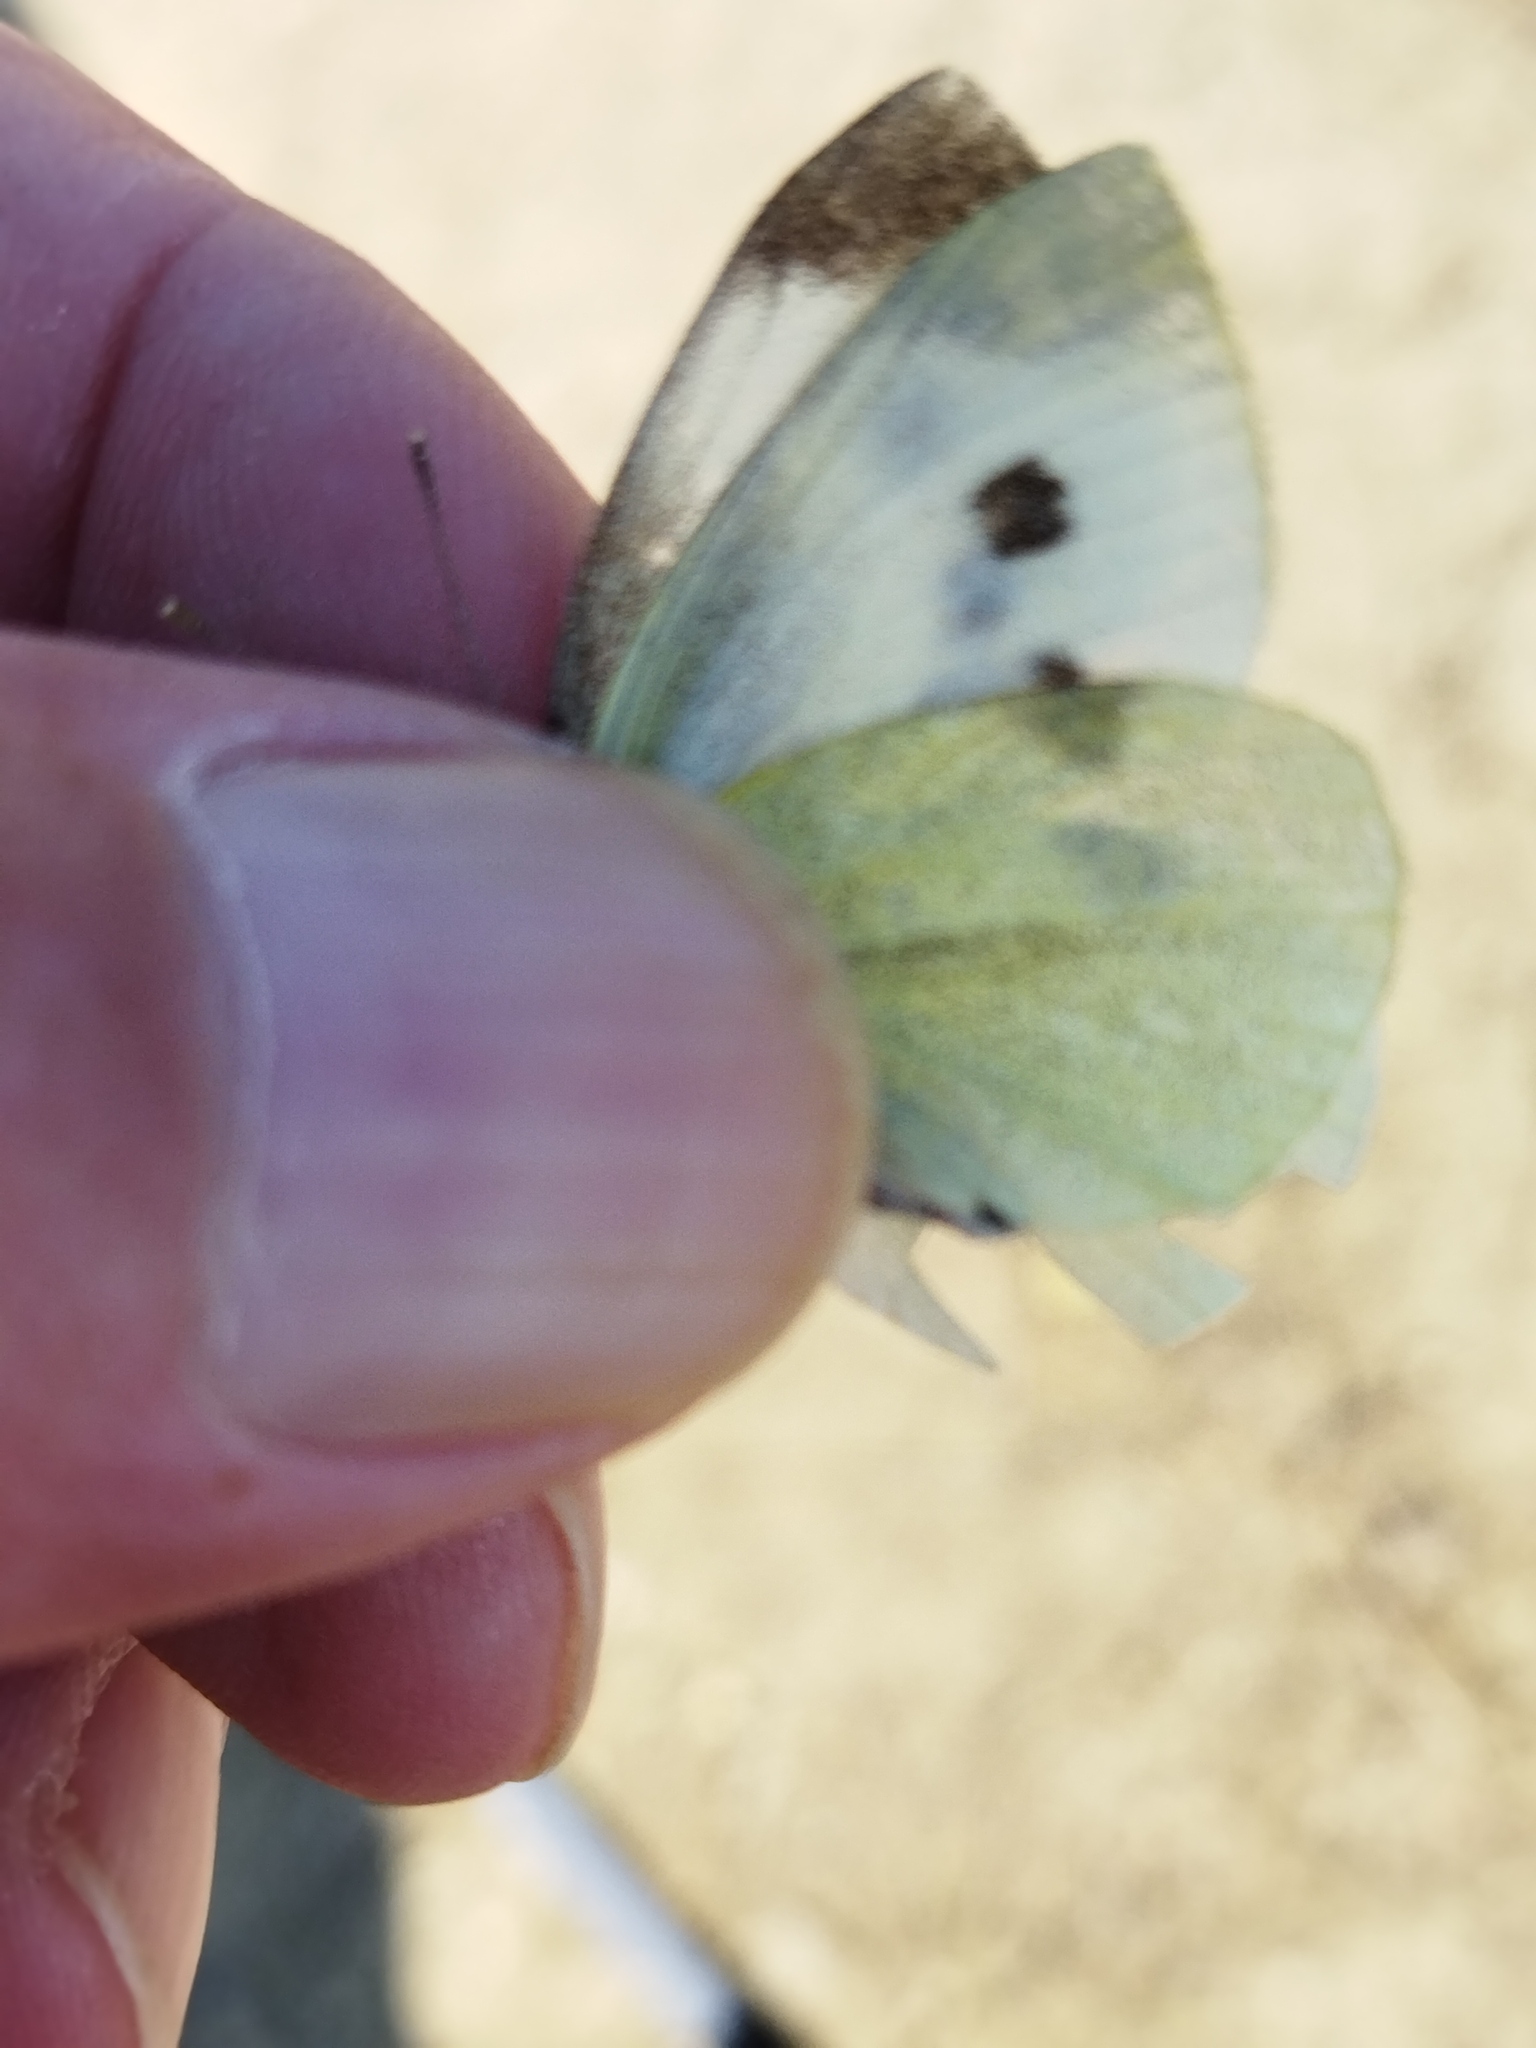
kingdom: Animalia
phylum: Arthropoda
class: Insecta
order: Lepidoptera
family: Pieridae
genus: Pieris
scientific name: Pieris rapae
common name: Small white
